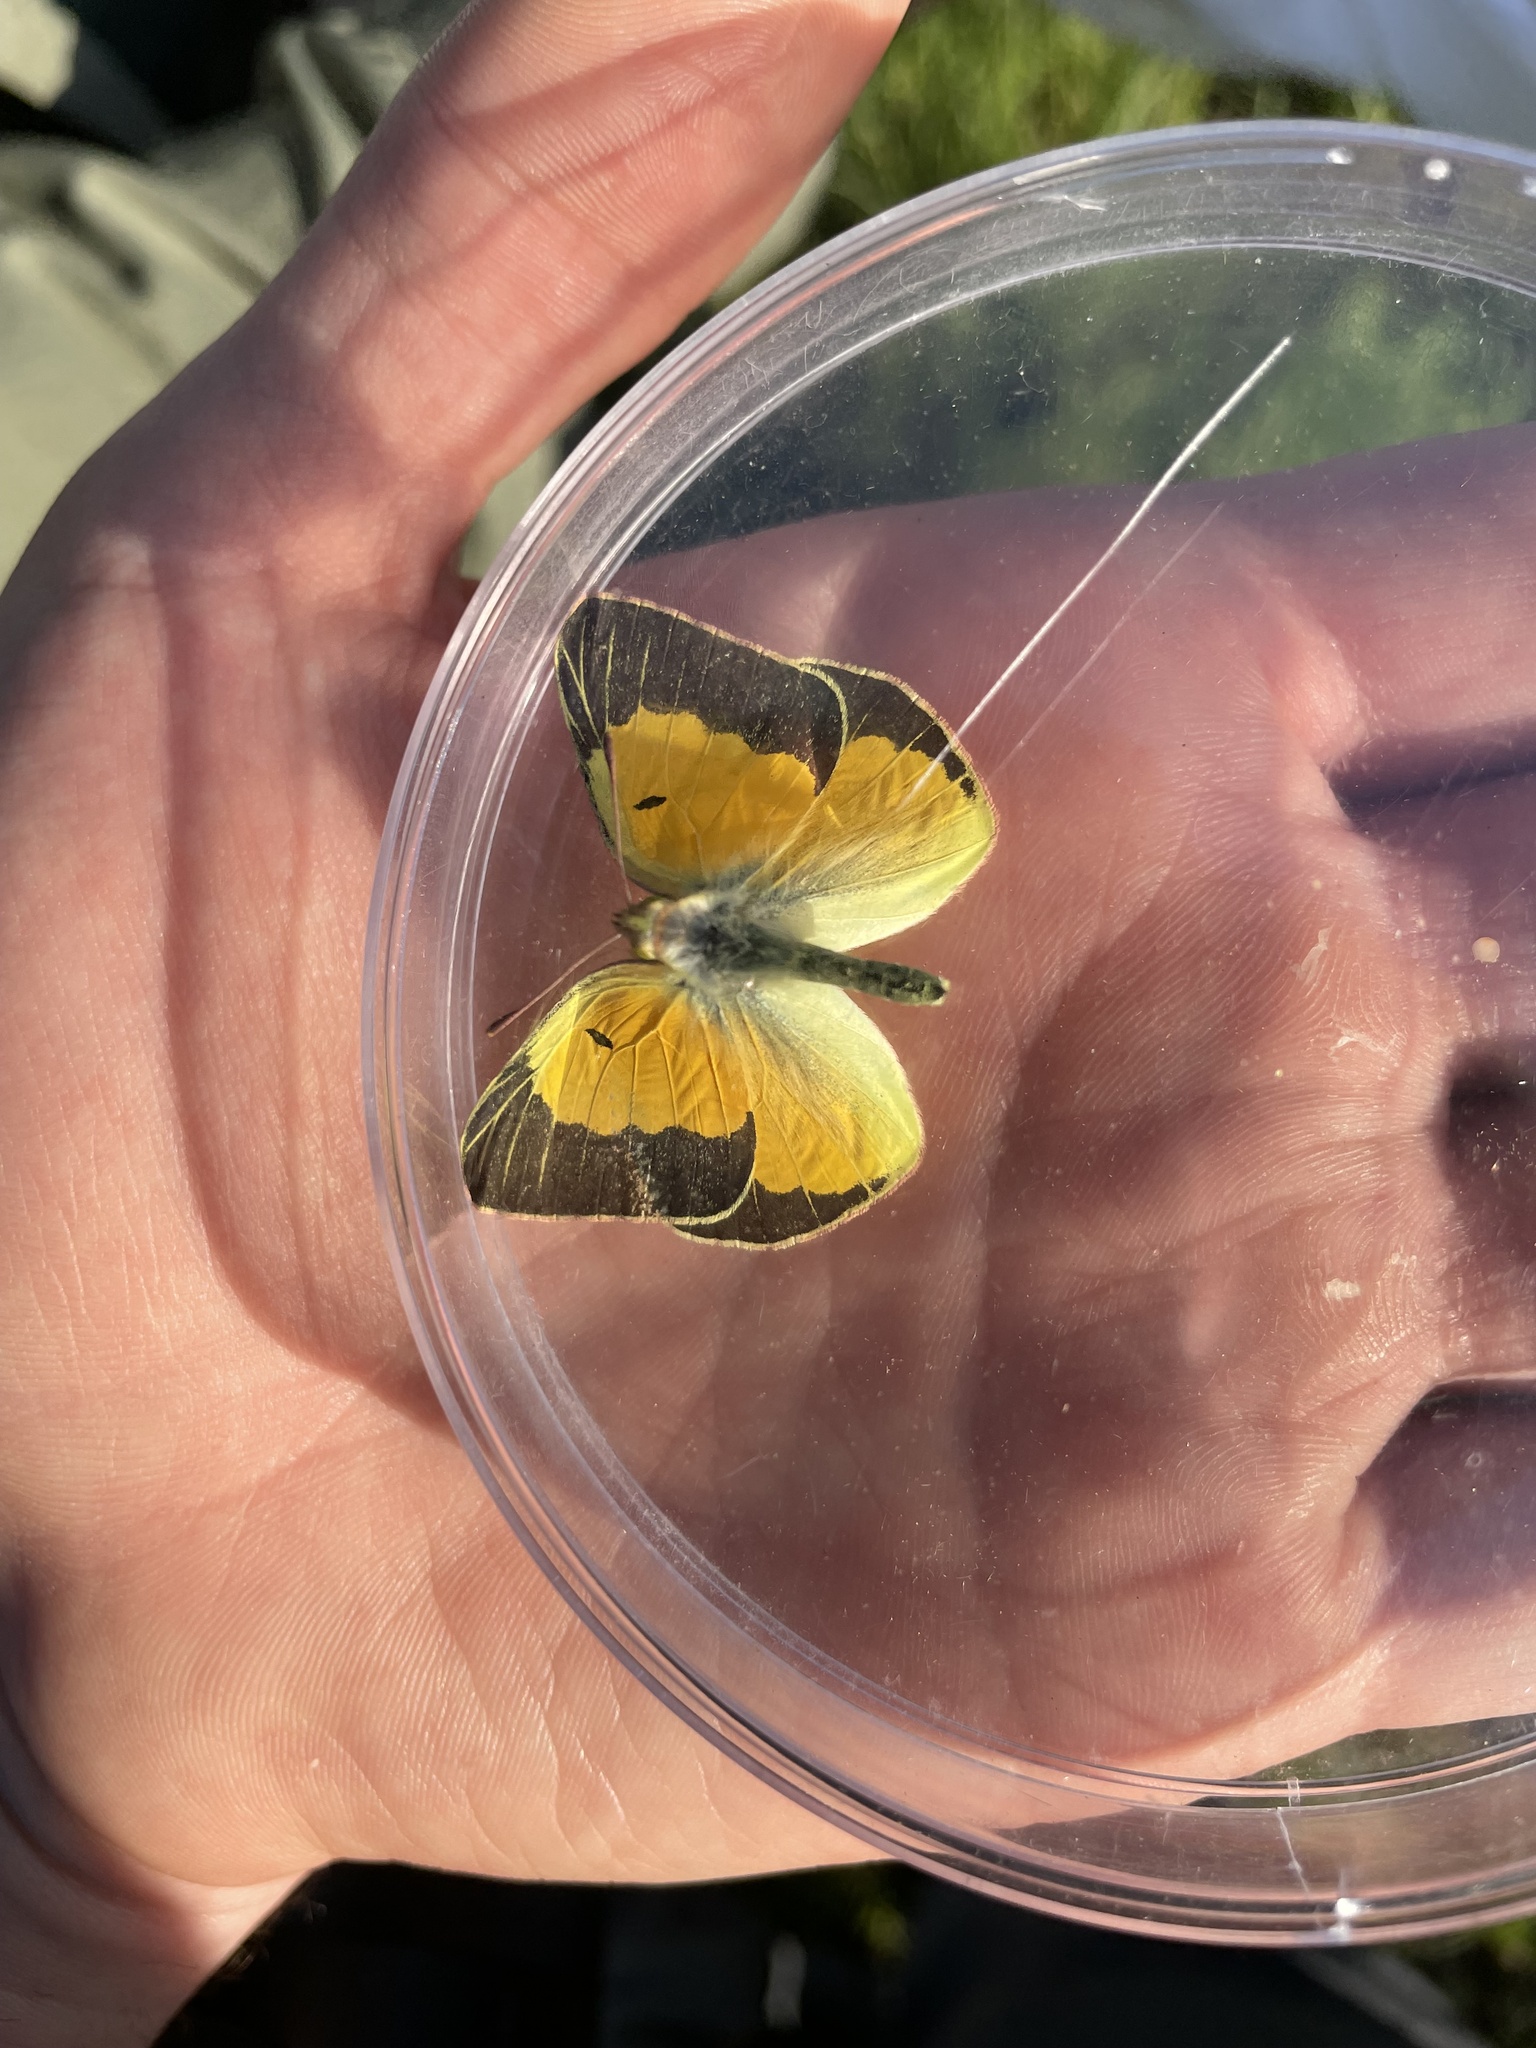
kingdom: Animalia
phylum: Arthropoda
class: Insecta
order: Lepidoptera
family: Pieridae
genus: Colias
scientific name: Colias eurytheme
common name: Alfalfa butterfly
